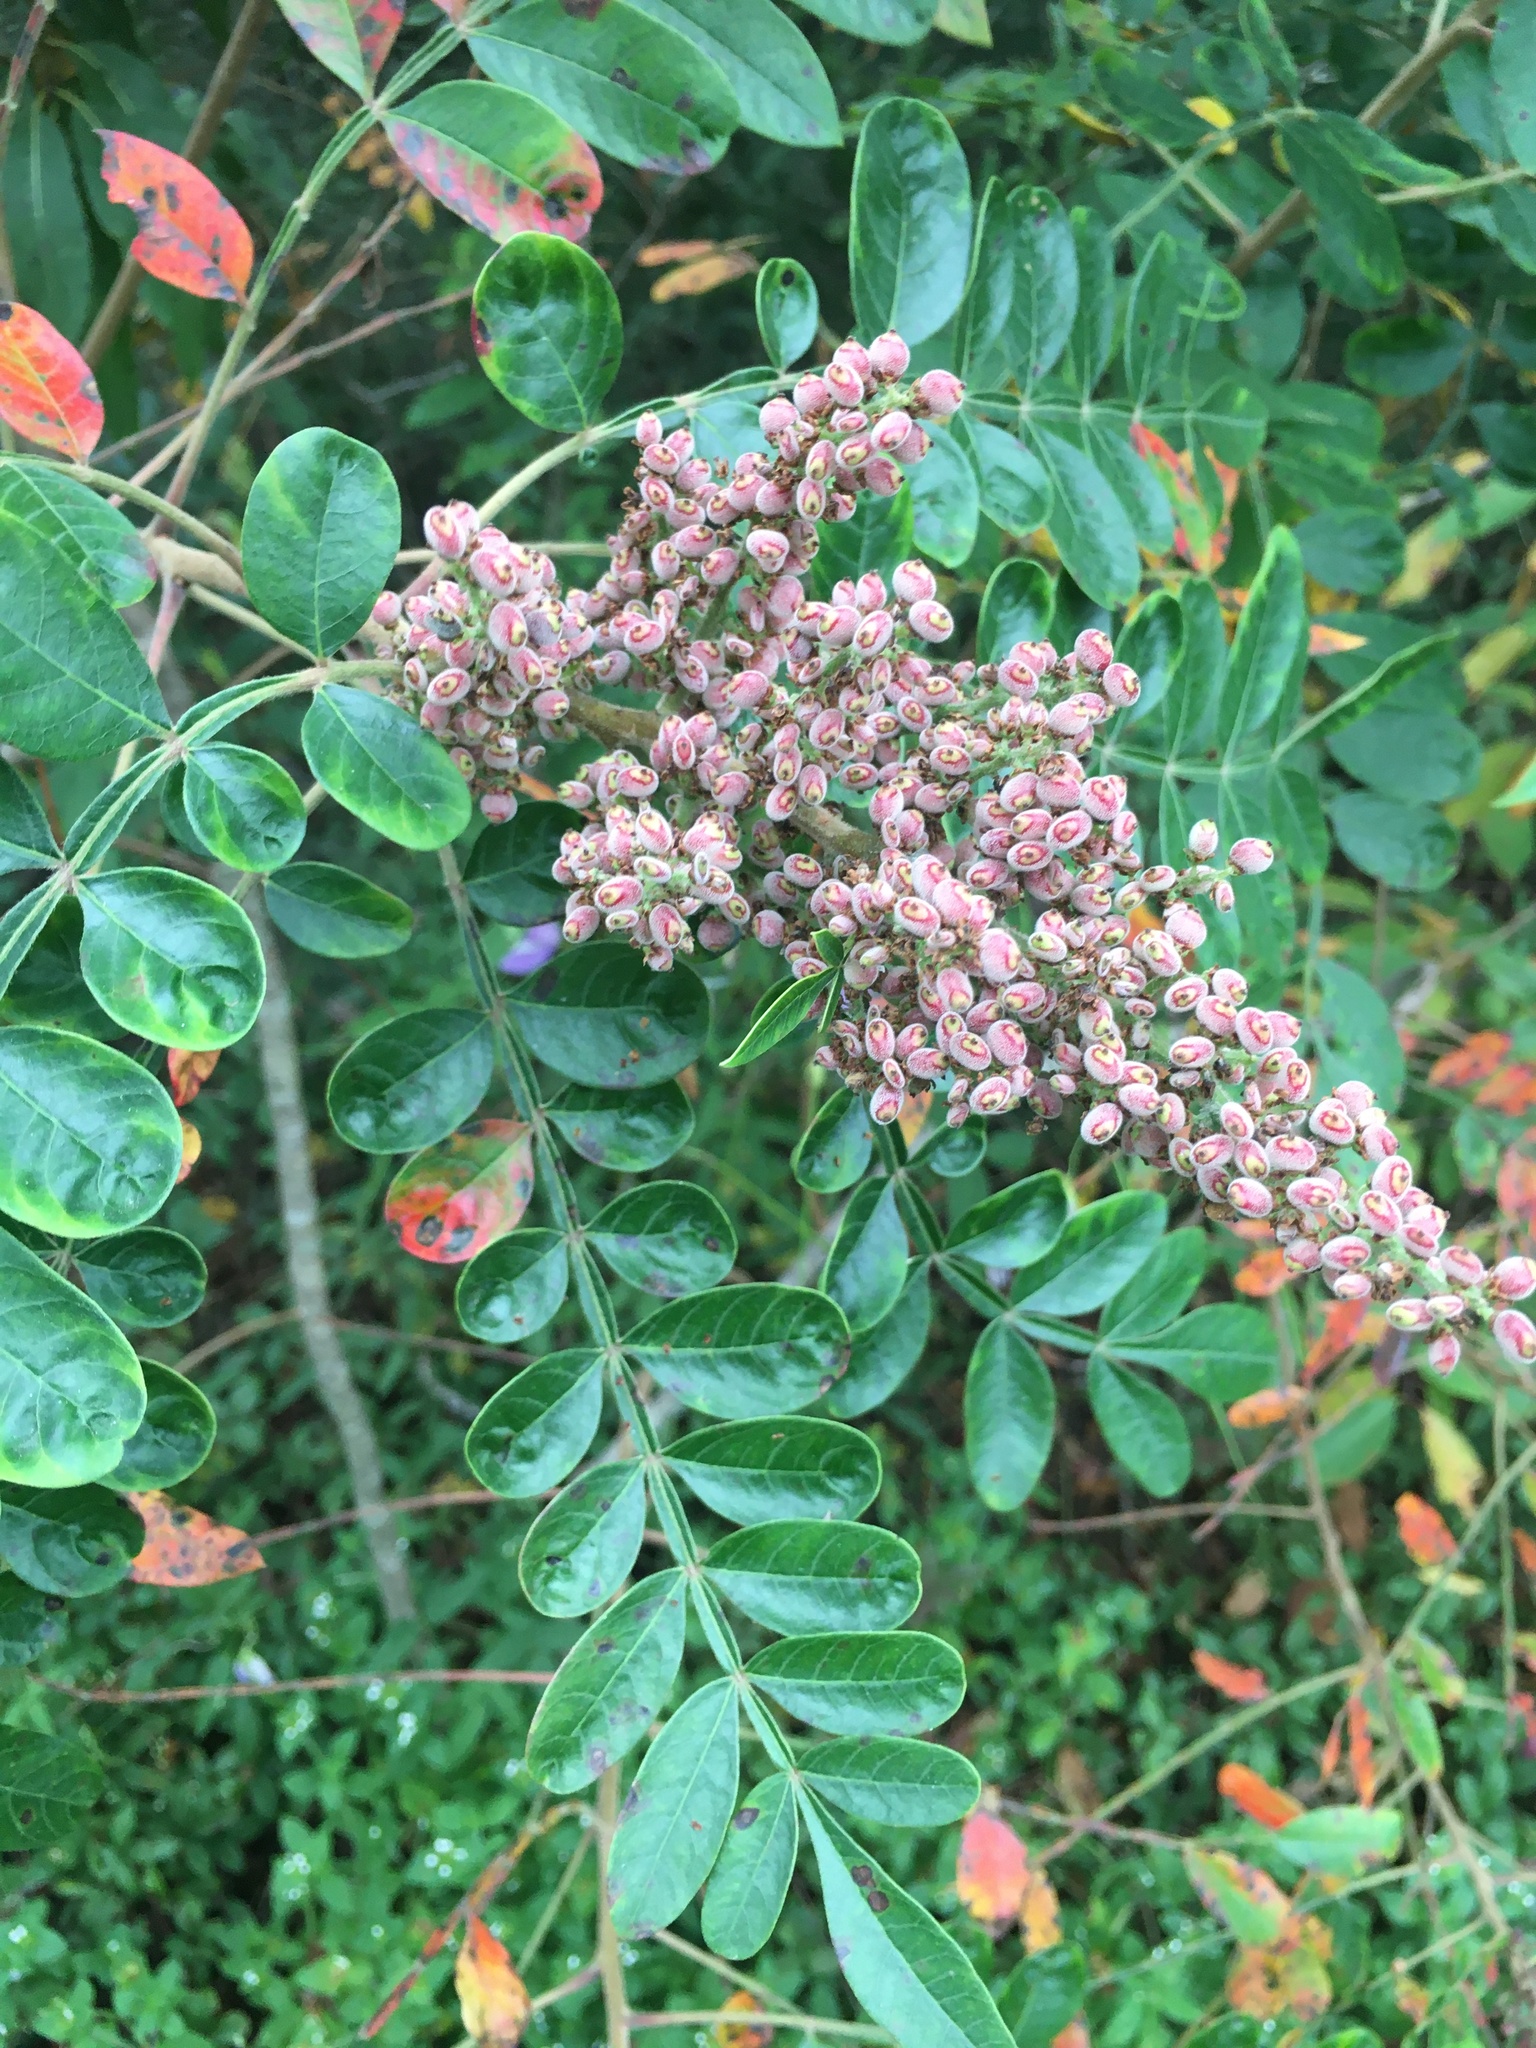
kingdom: Plantae
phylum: Tracheophyta
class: Magnoliopsida
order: Sapindales
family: Anacardiaceae
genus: Rhus
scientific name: Rhus copallina
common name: Shining sumac
